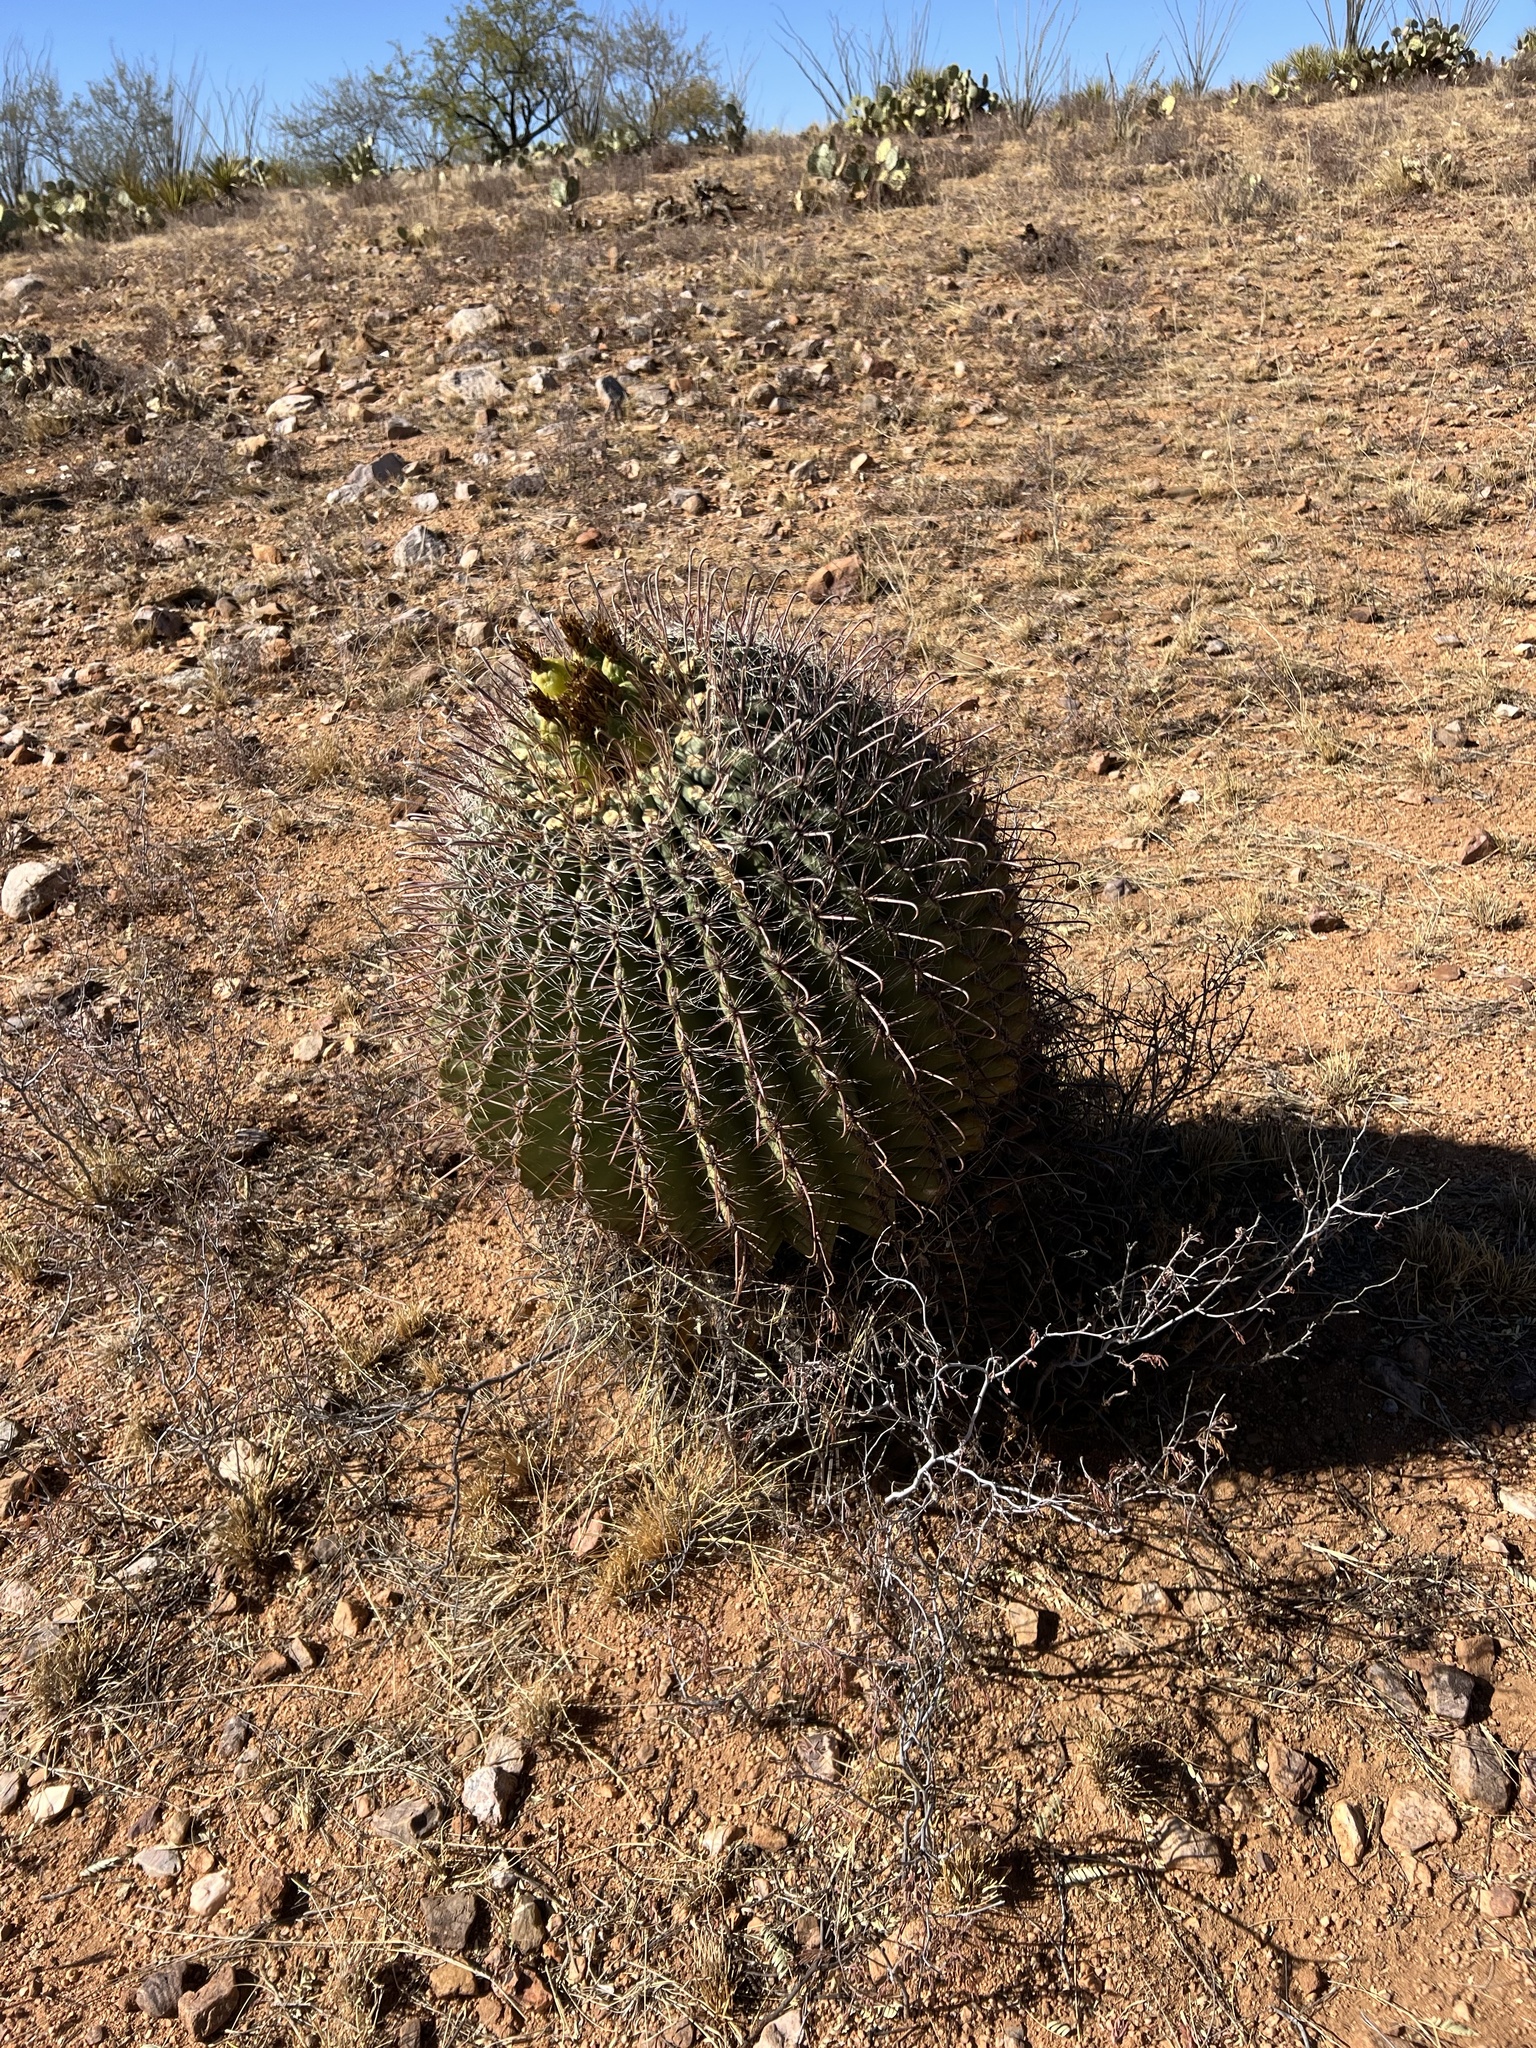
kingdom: Plantae
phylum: Tracheophyta
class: Magnoliopsida
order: Caryophyllales
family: Cactaceae
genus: Ferocactus
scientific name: Ferocactus wislizeni
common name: Candy barrel cactus
